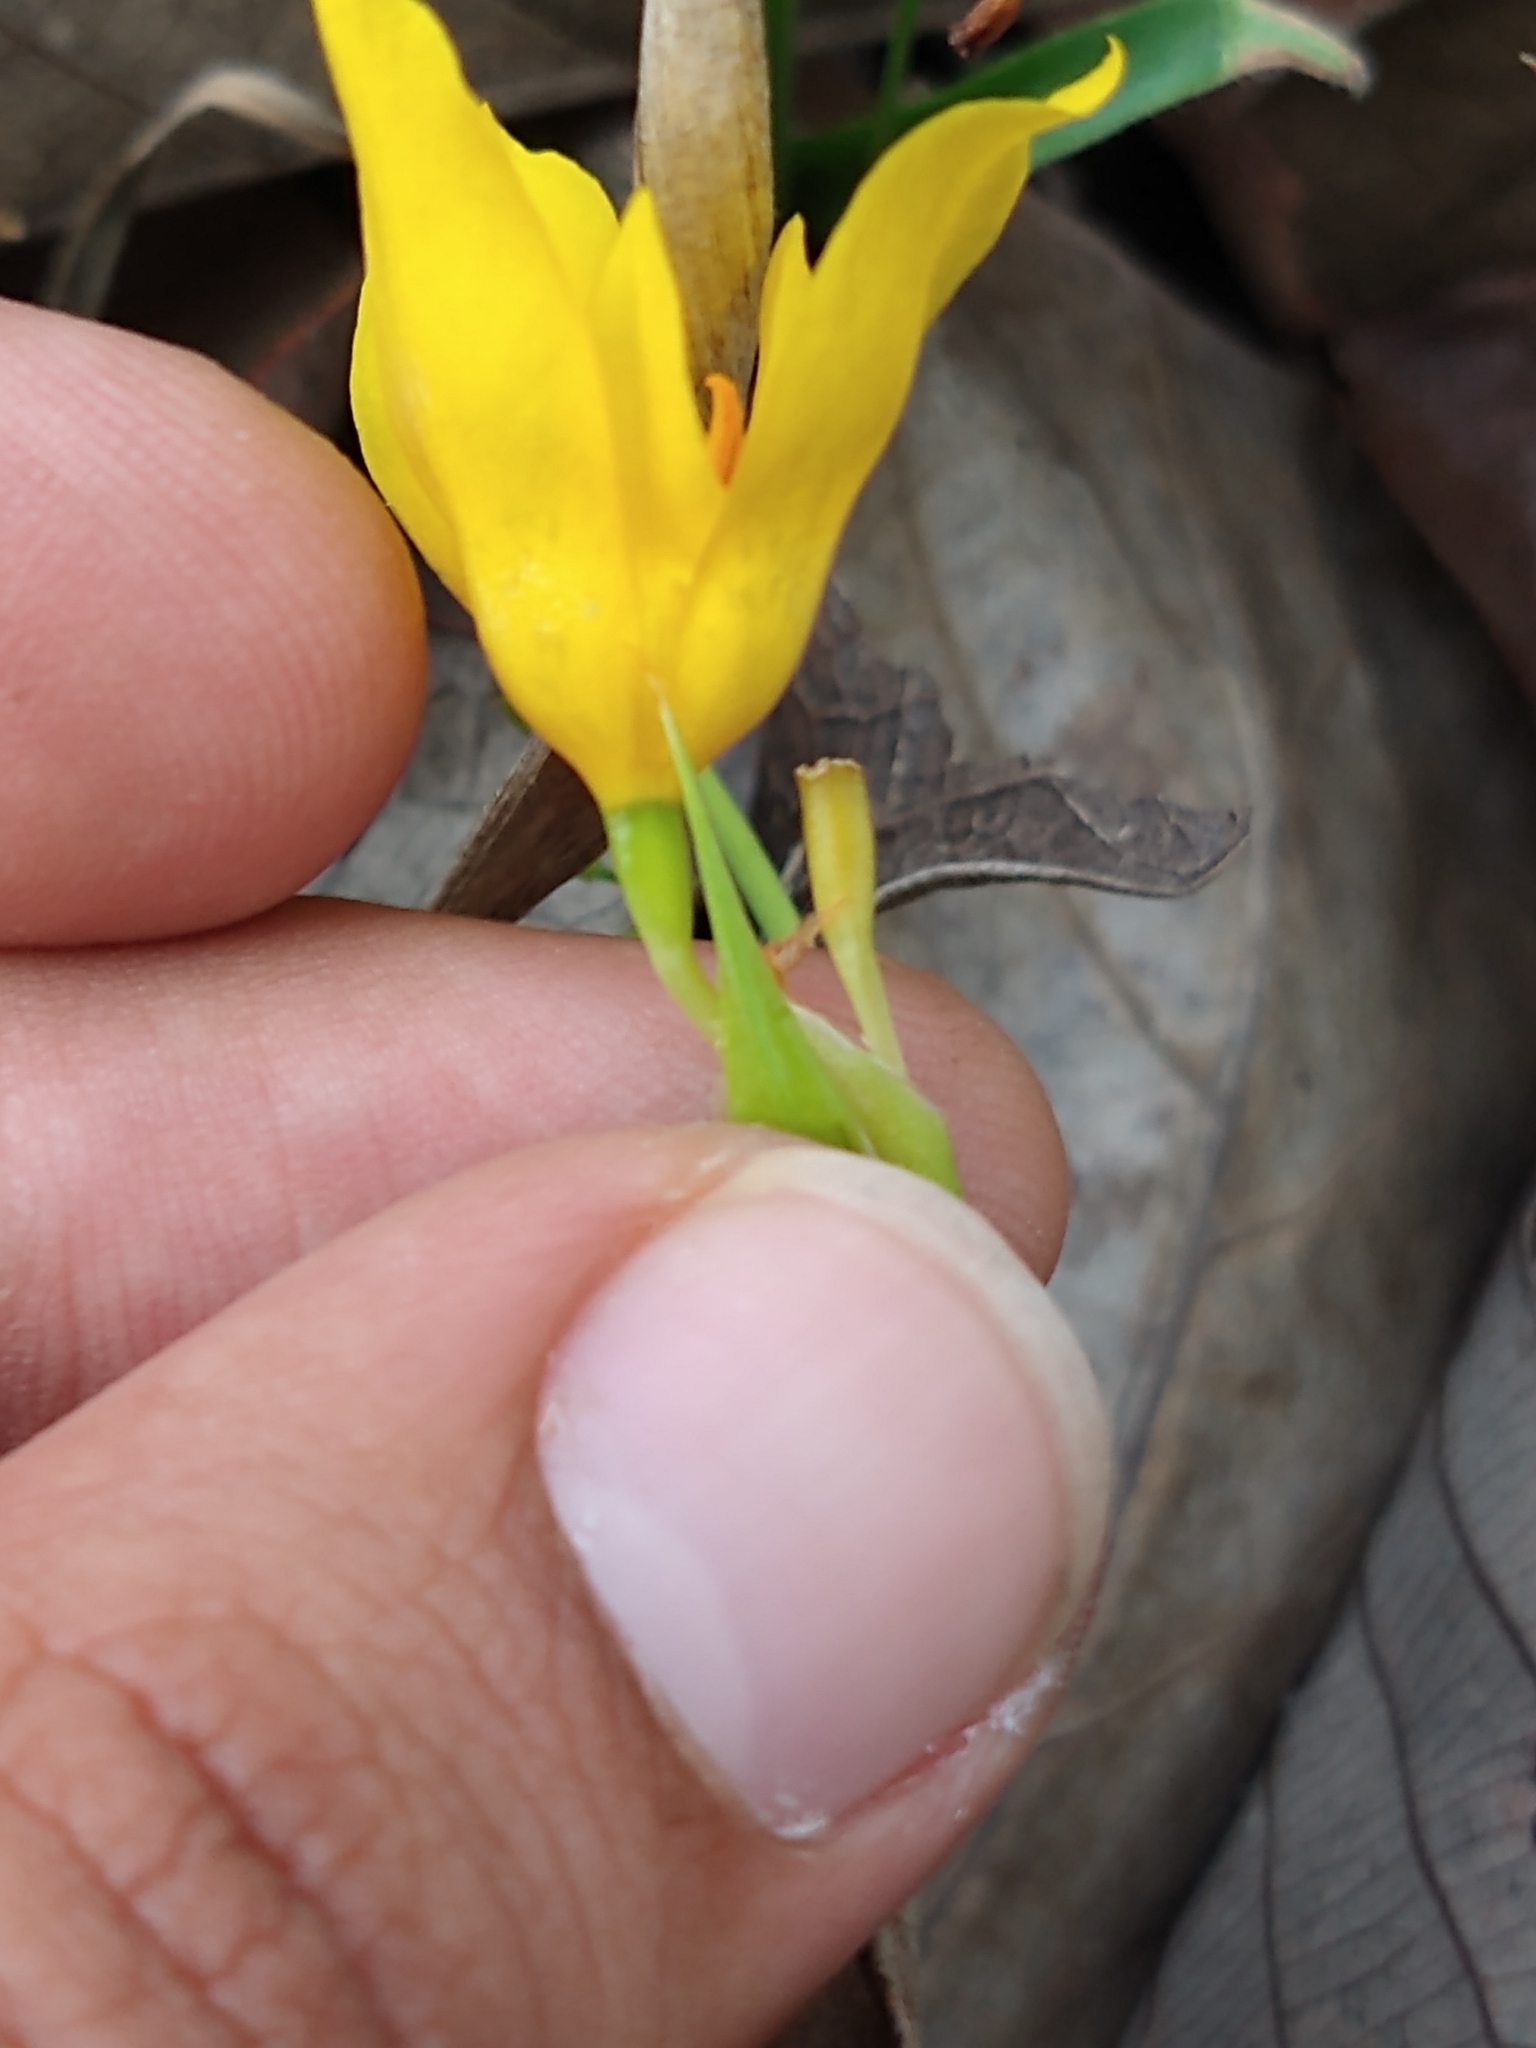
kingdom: Plantae
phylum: Tracheophyta
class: Liliopsida
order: Asparagales
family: Iridaceae
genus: Tigridia
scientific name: Tigridia dugesii
